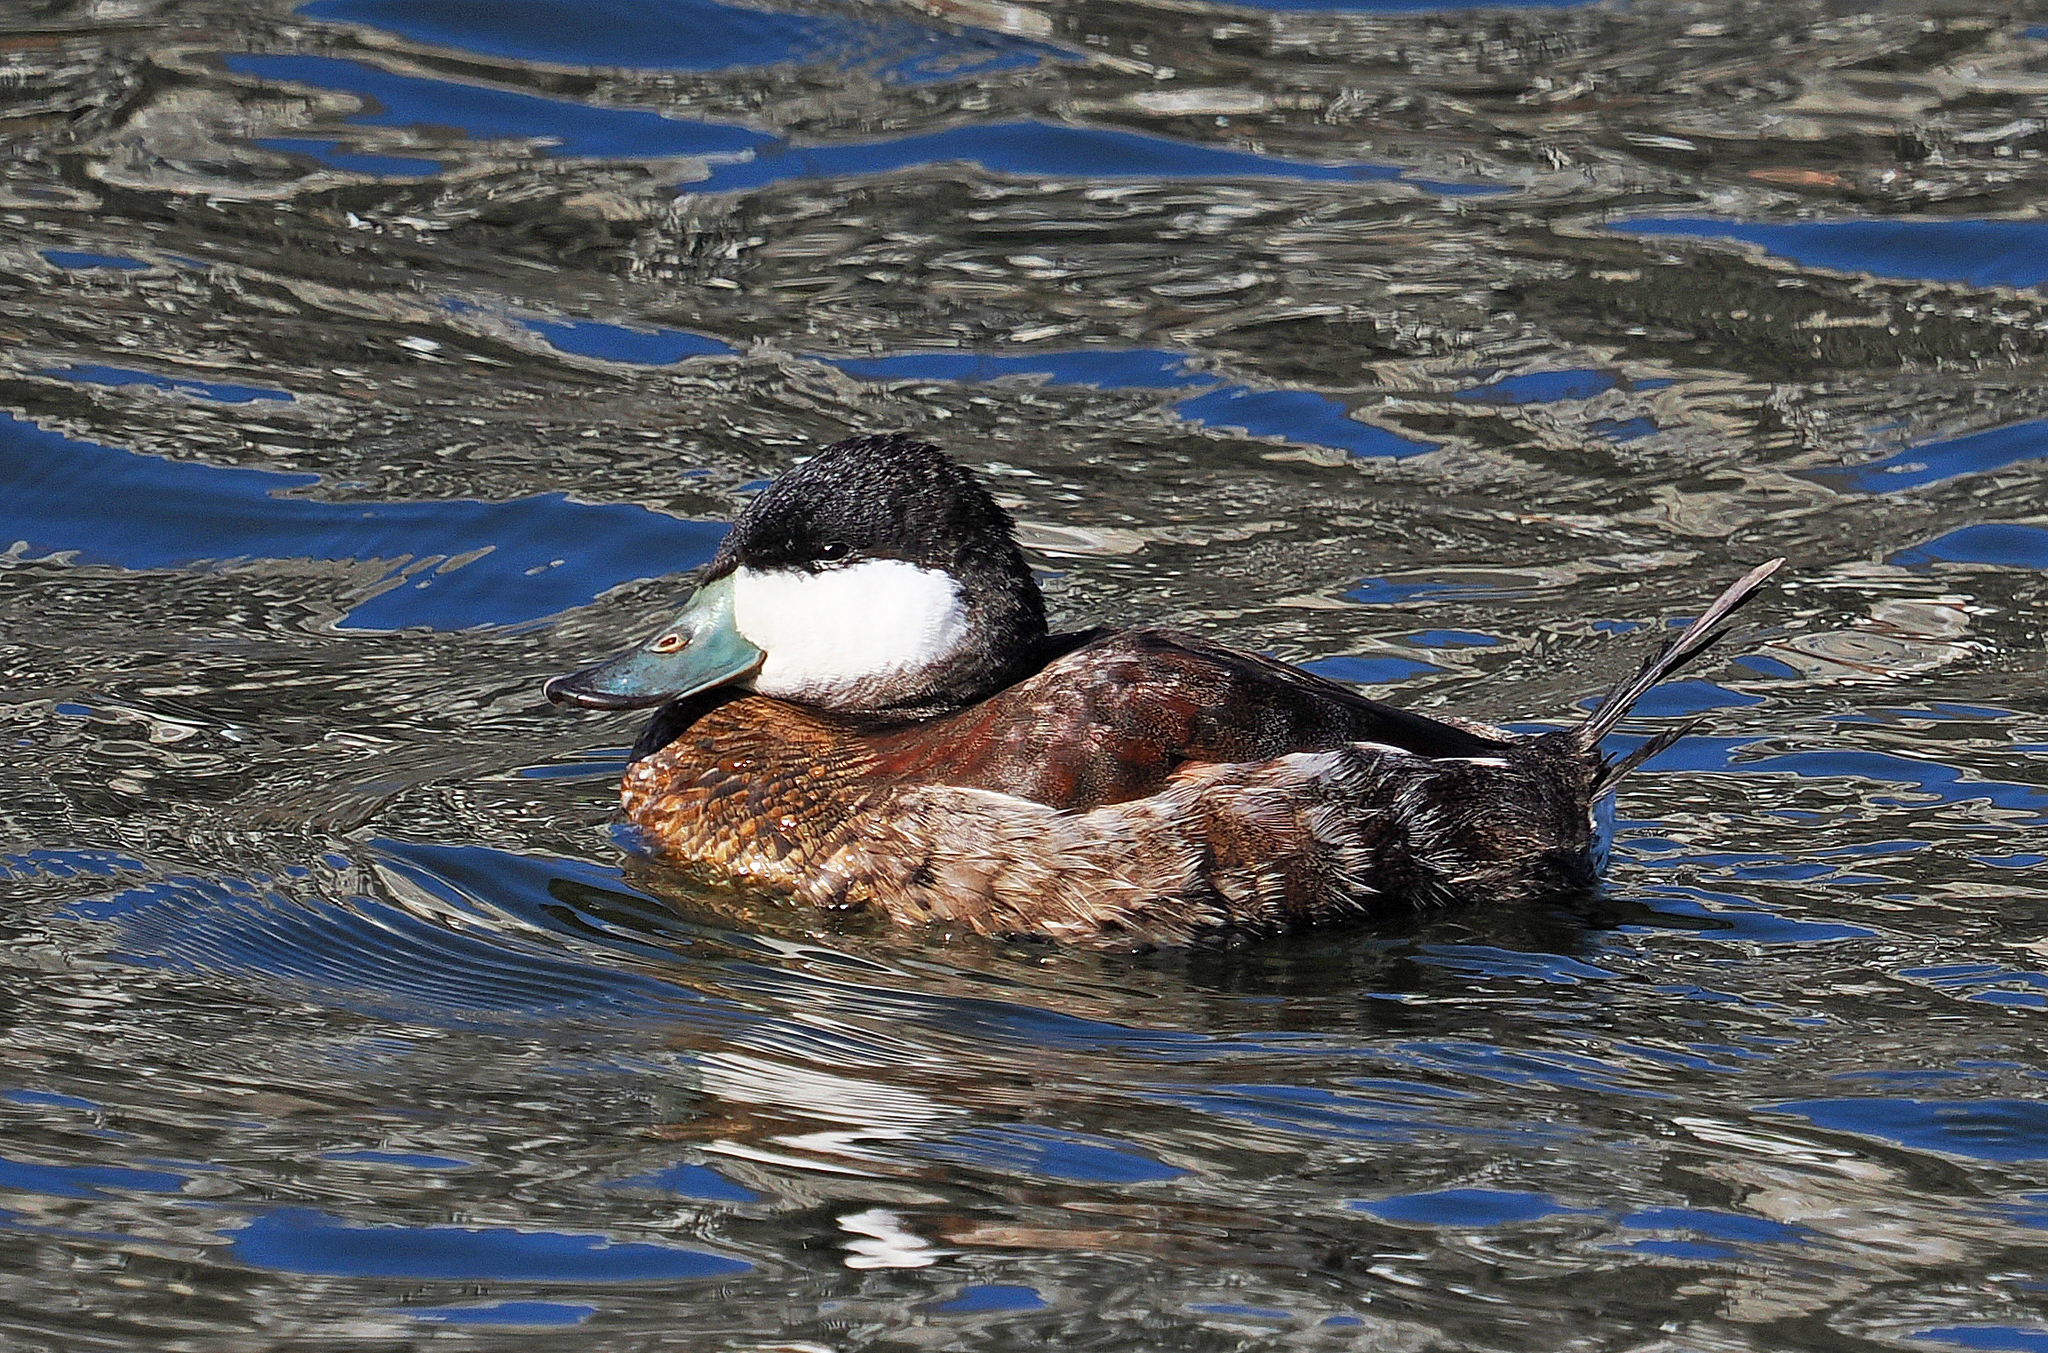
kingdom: Animalia
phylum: Chordata
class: Aves
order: Anseriformes
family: Anatidae
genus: Oxyura
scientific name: Oxyura jamaicensis
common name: Ruddy duck
